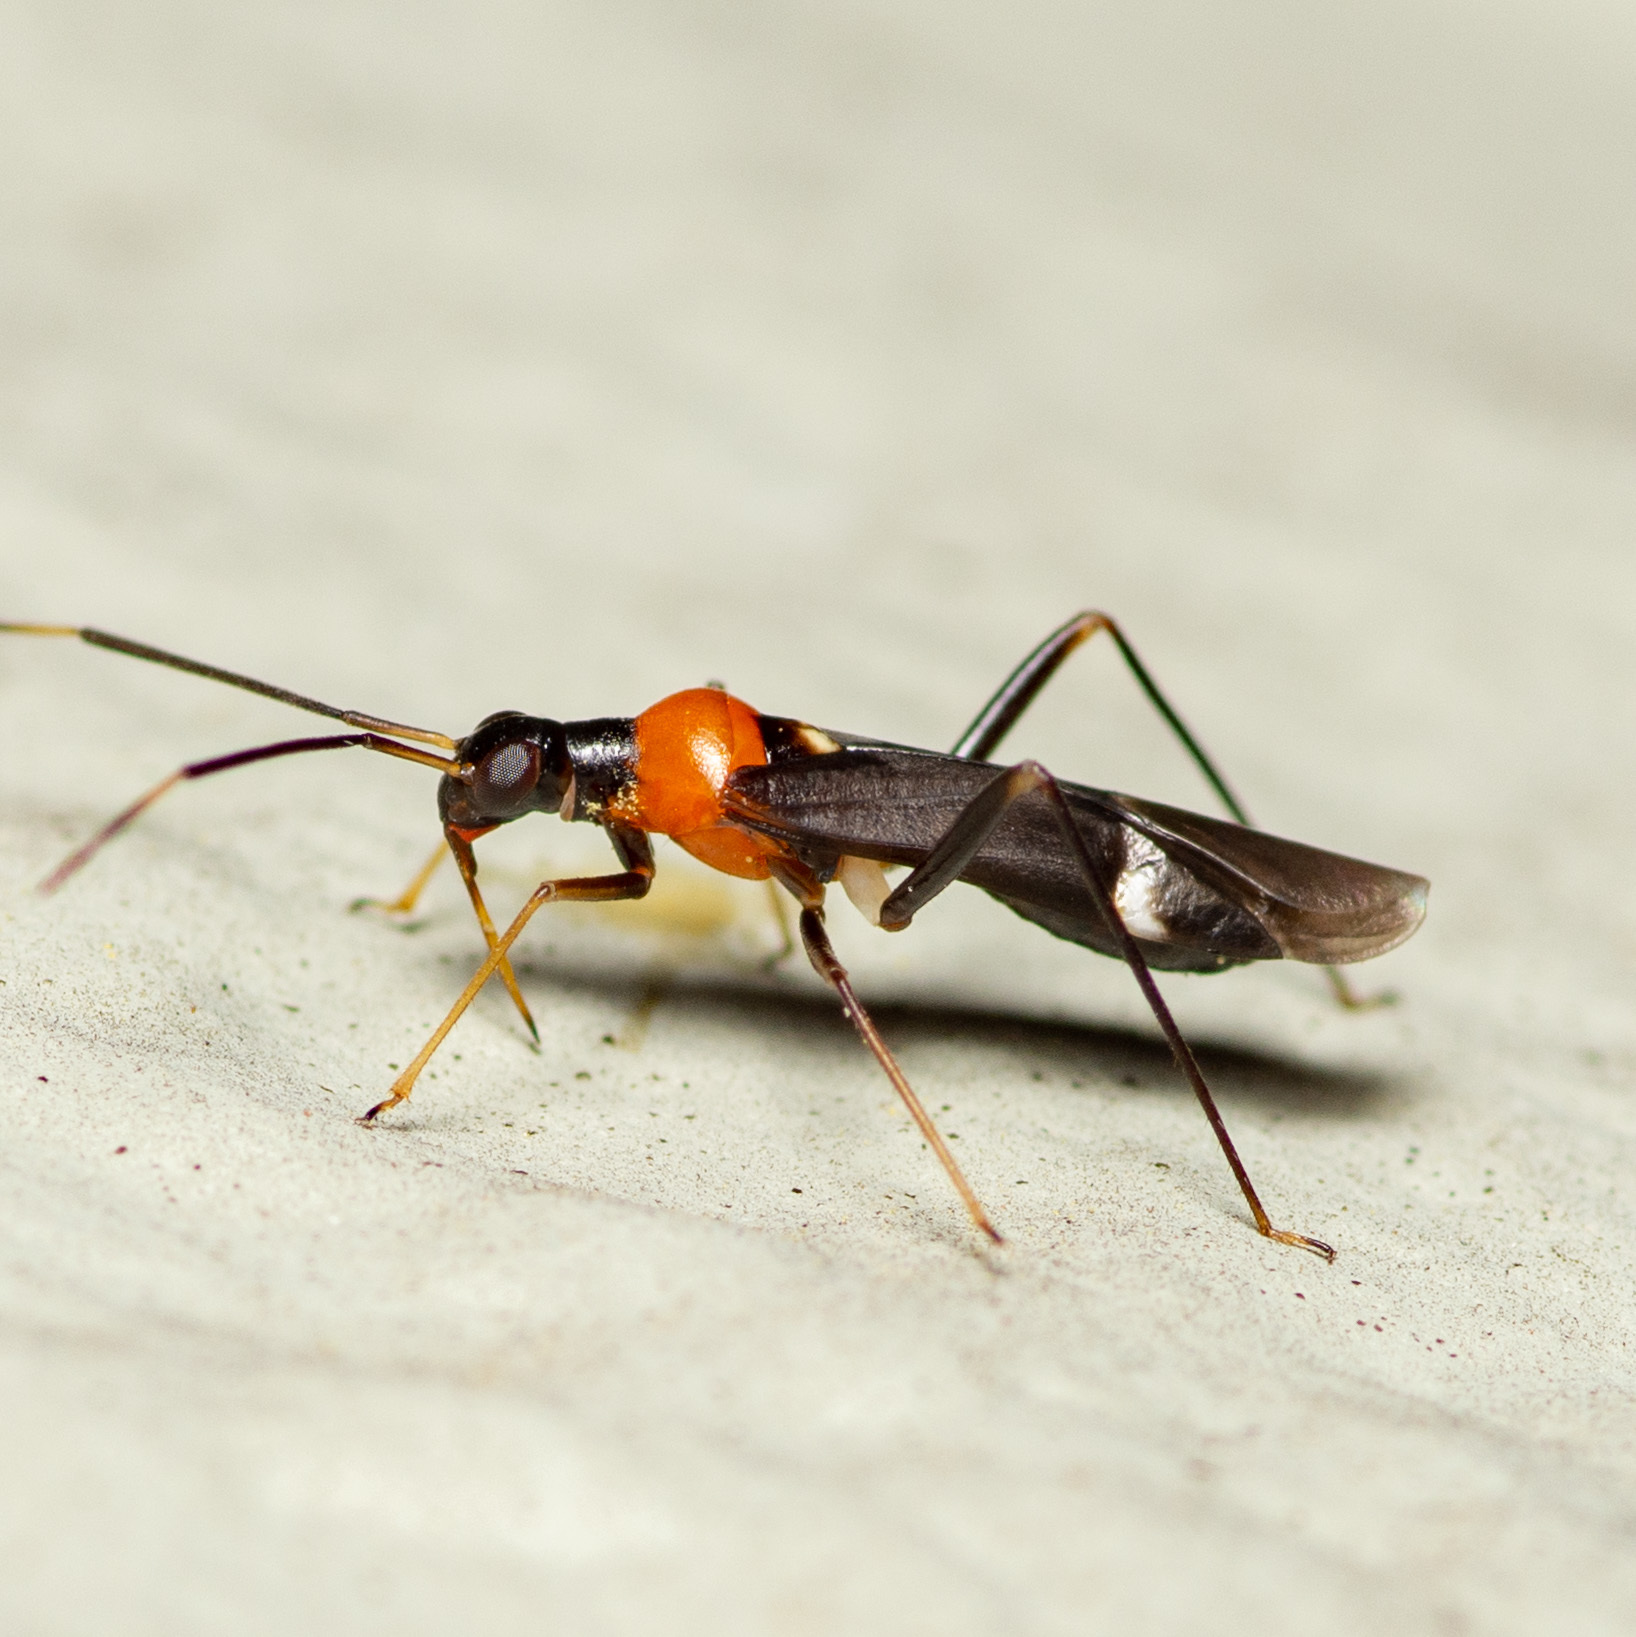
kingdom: Animalia
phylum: Arthropoda
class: Insecta
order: Hemiptera
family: Miridae
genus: Pseudoxenetus
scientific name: Pseudoxenetus regalis
